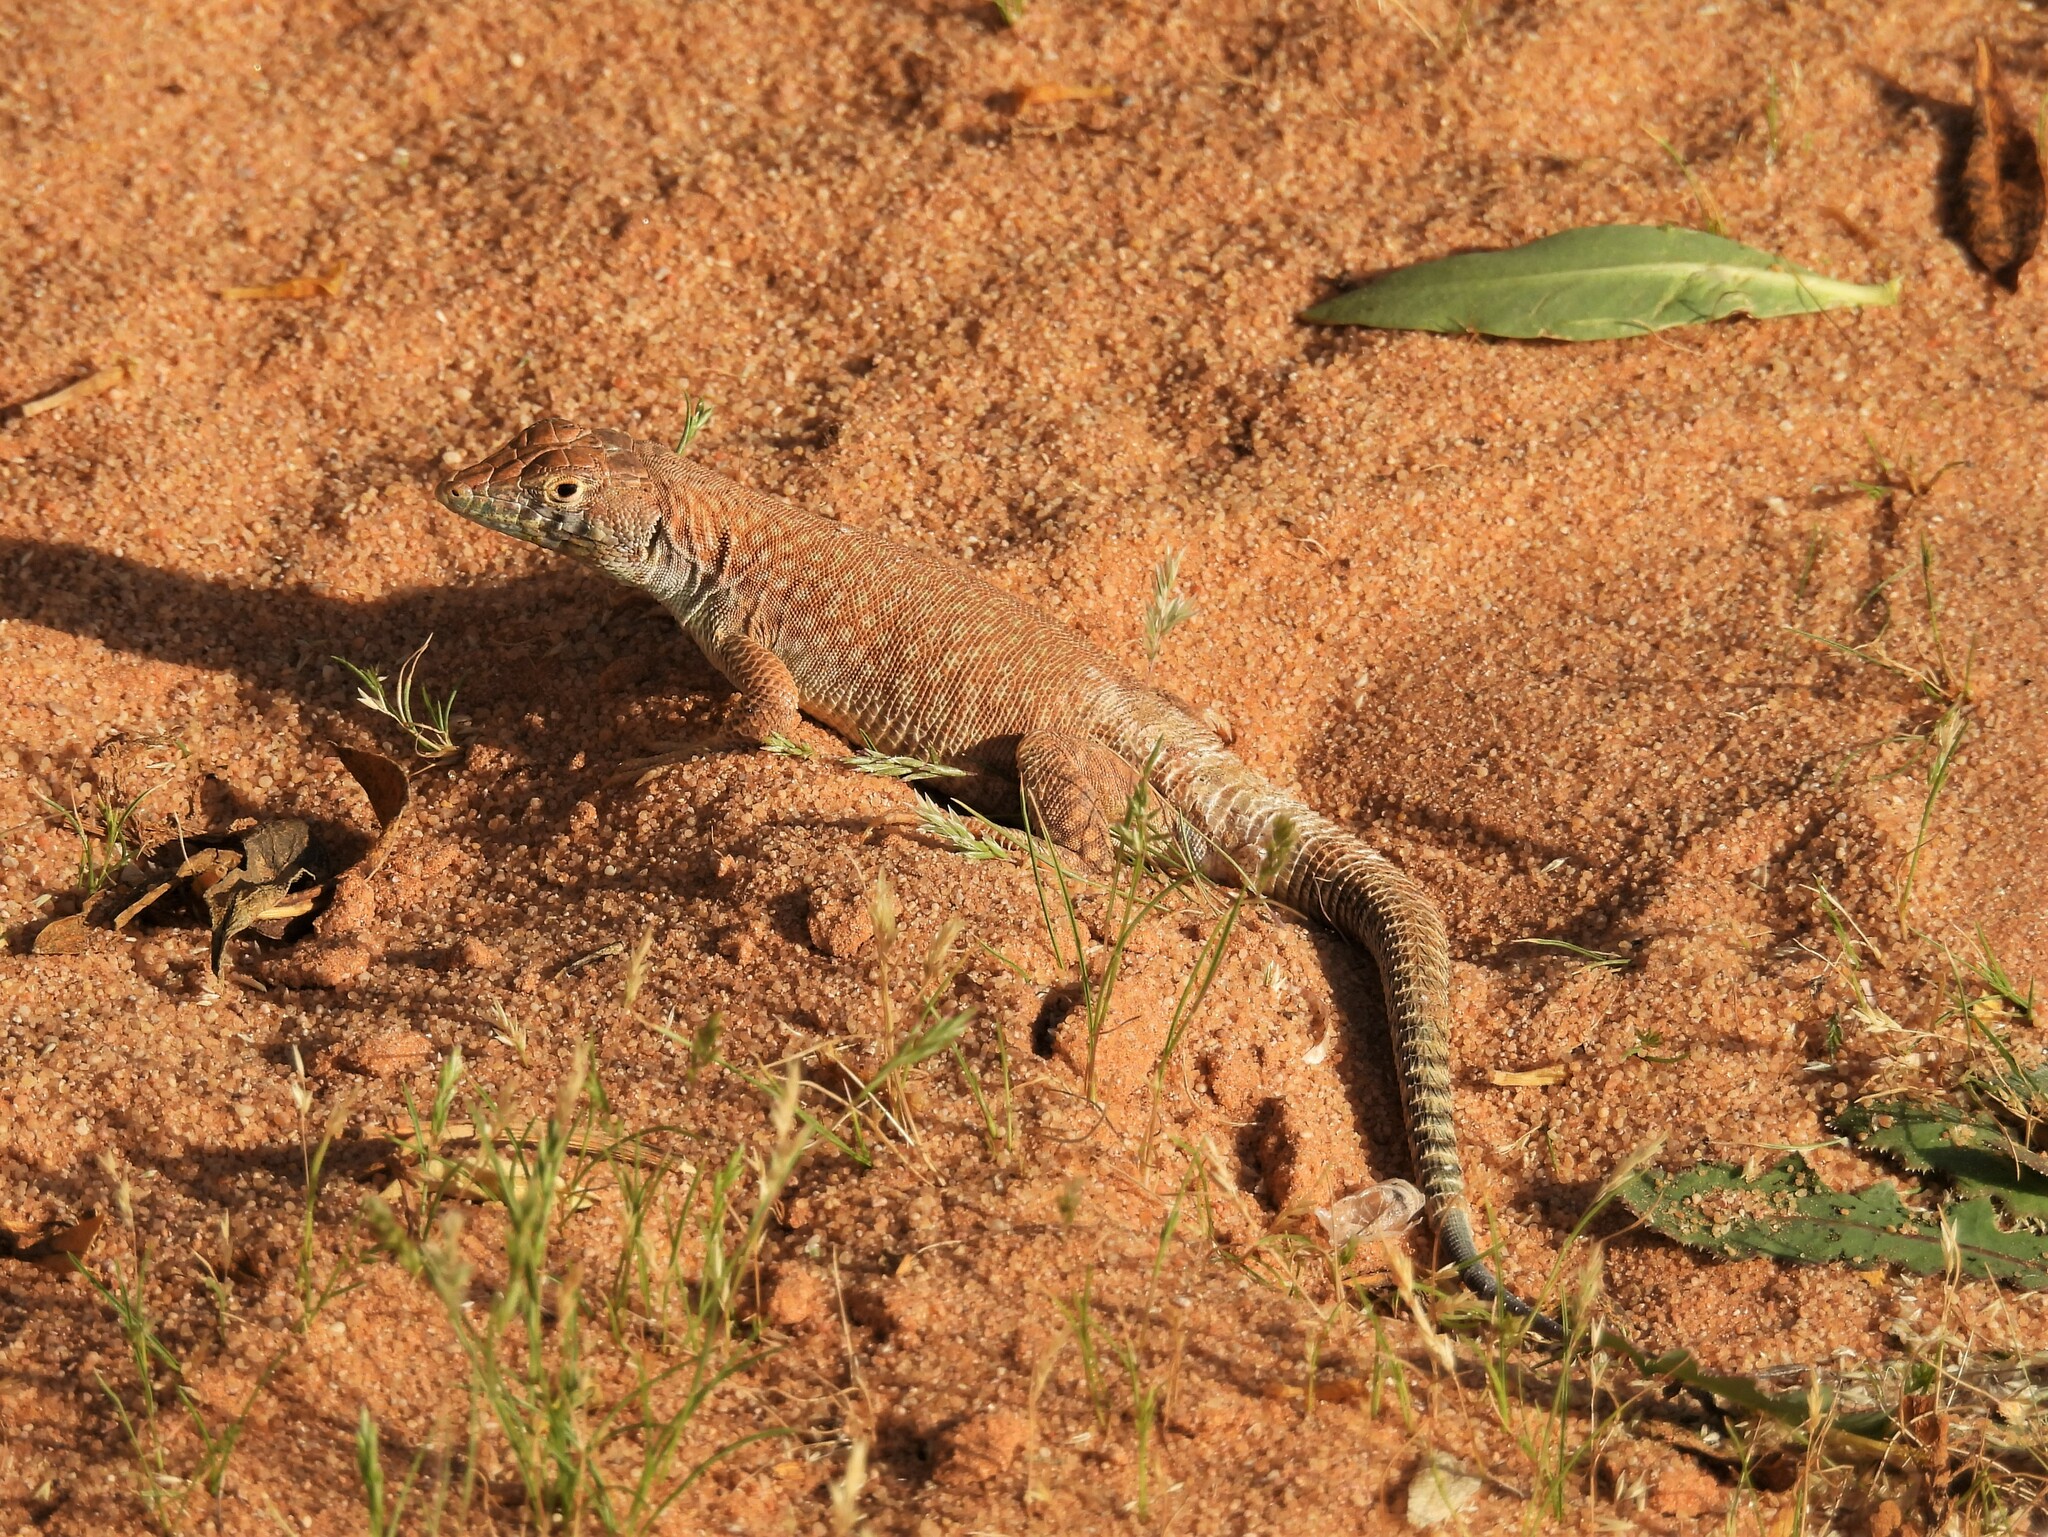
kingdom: Animalia
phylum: Chordata
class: Squamata
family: Lacertidae
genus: Acanthodactylus
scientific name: Acanthodactylus schmidti
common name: Schmidt's fringe-toed lizard
